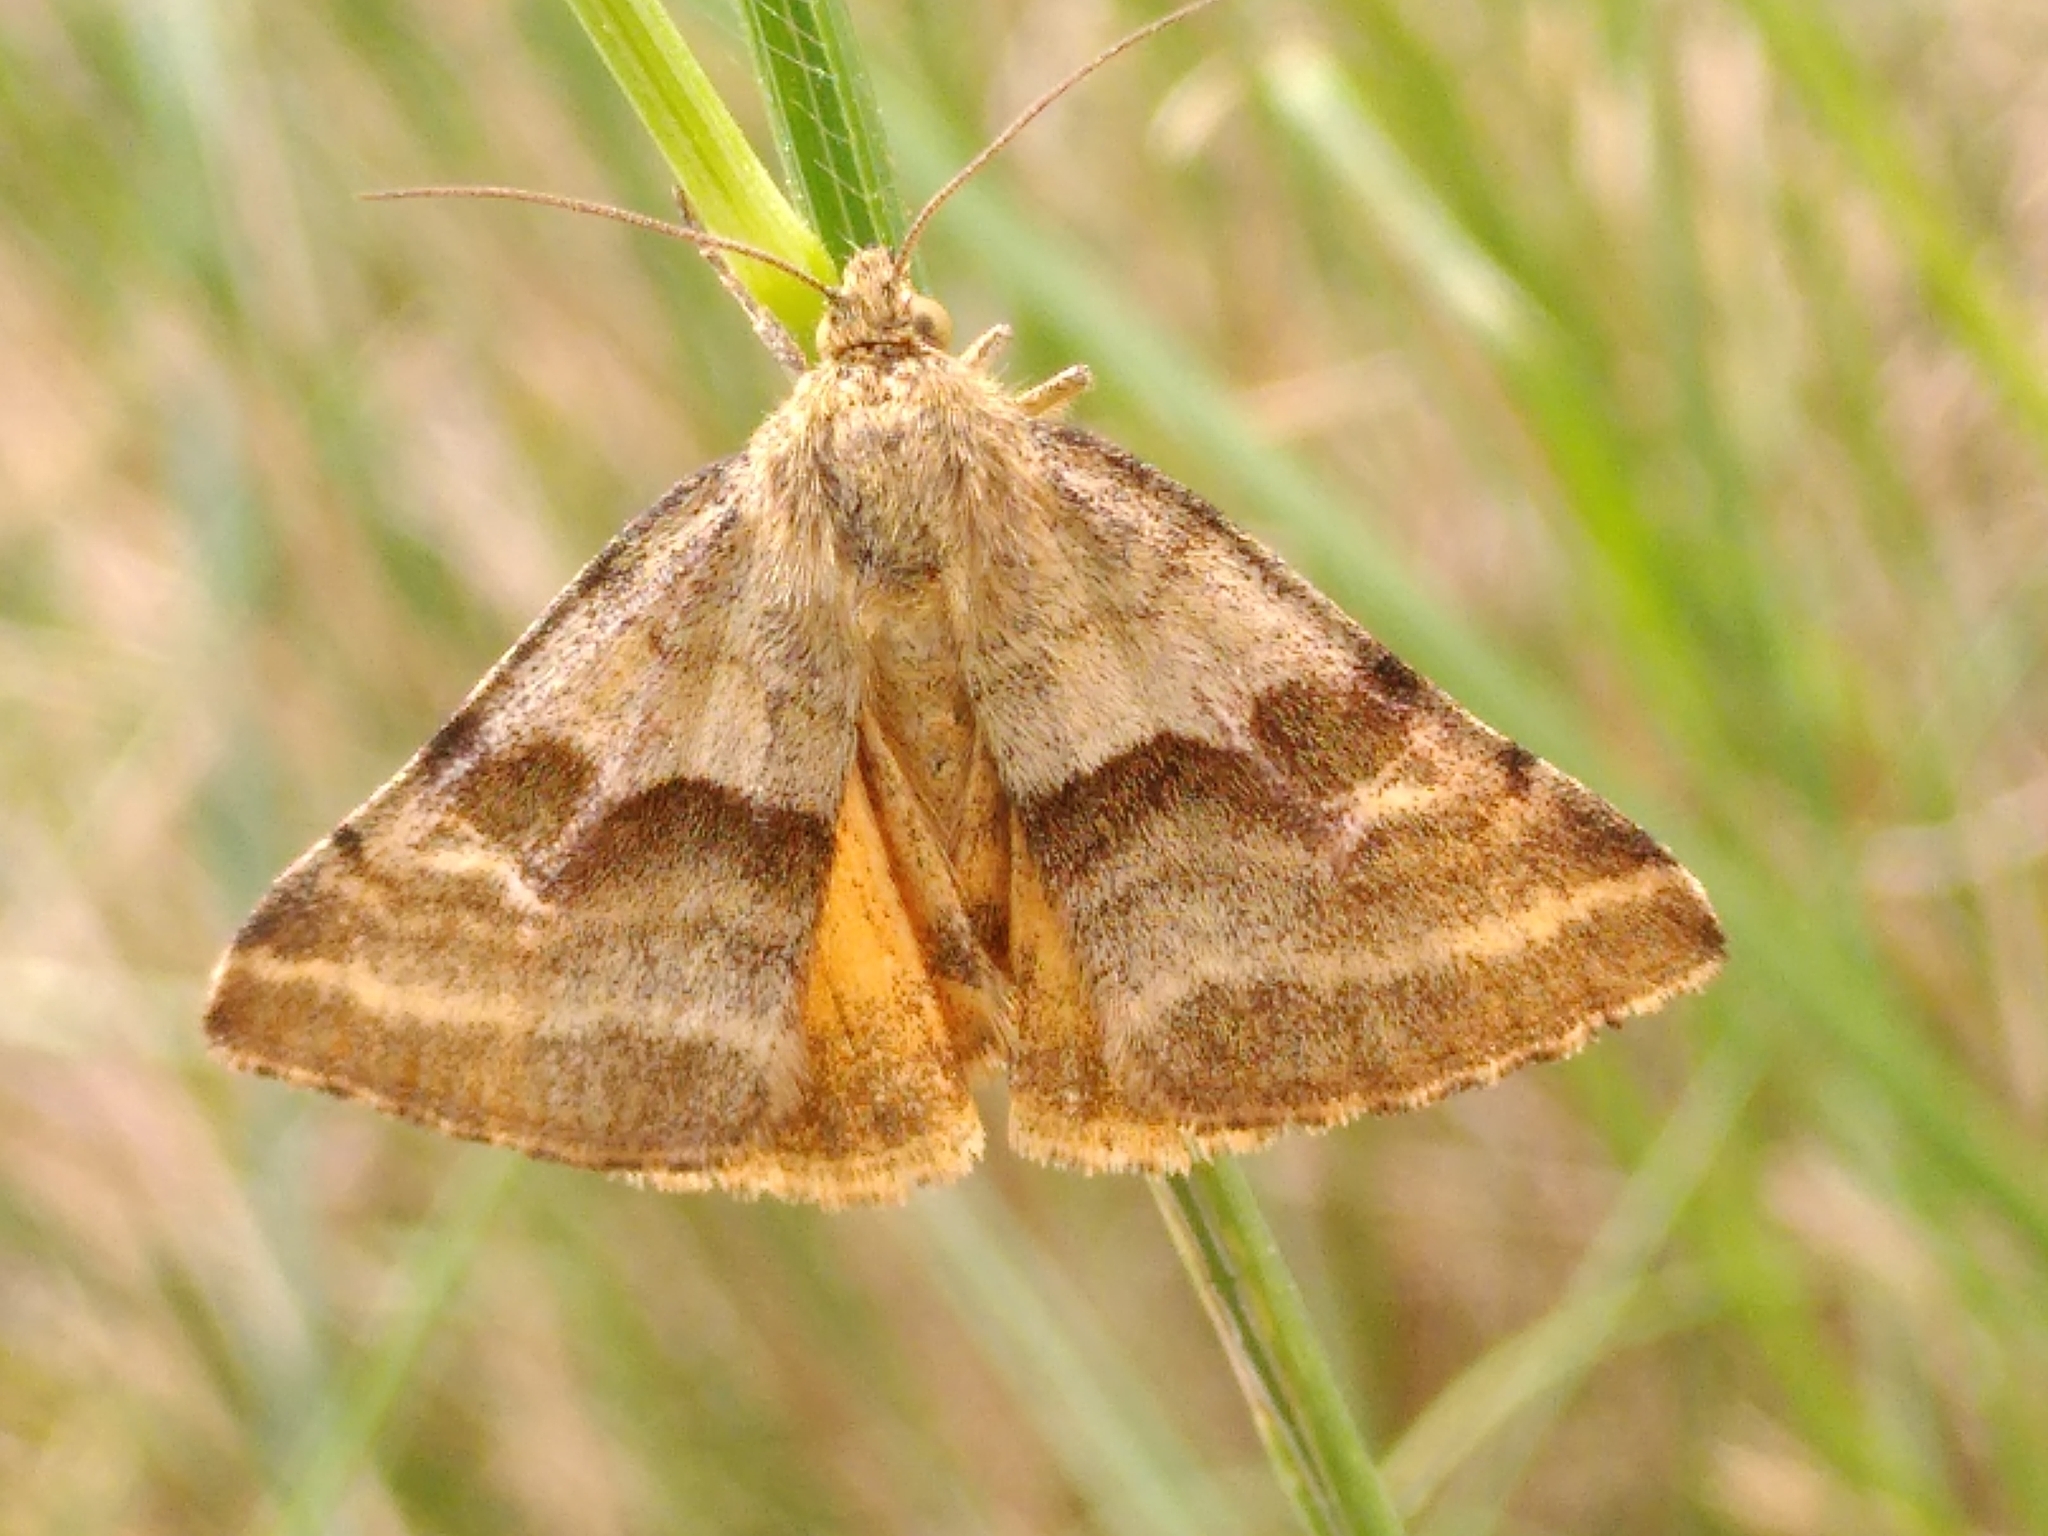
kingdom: Animalia
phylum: Arthropoda
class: Insecta
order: Lepidoptera
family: Noctuidae
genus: Synthymia
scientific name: Synthymia fixa
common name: Goldwing
